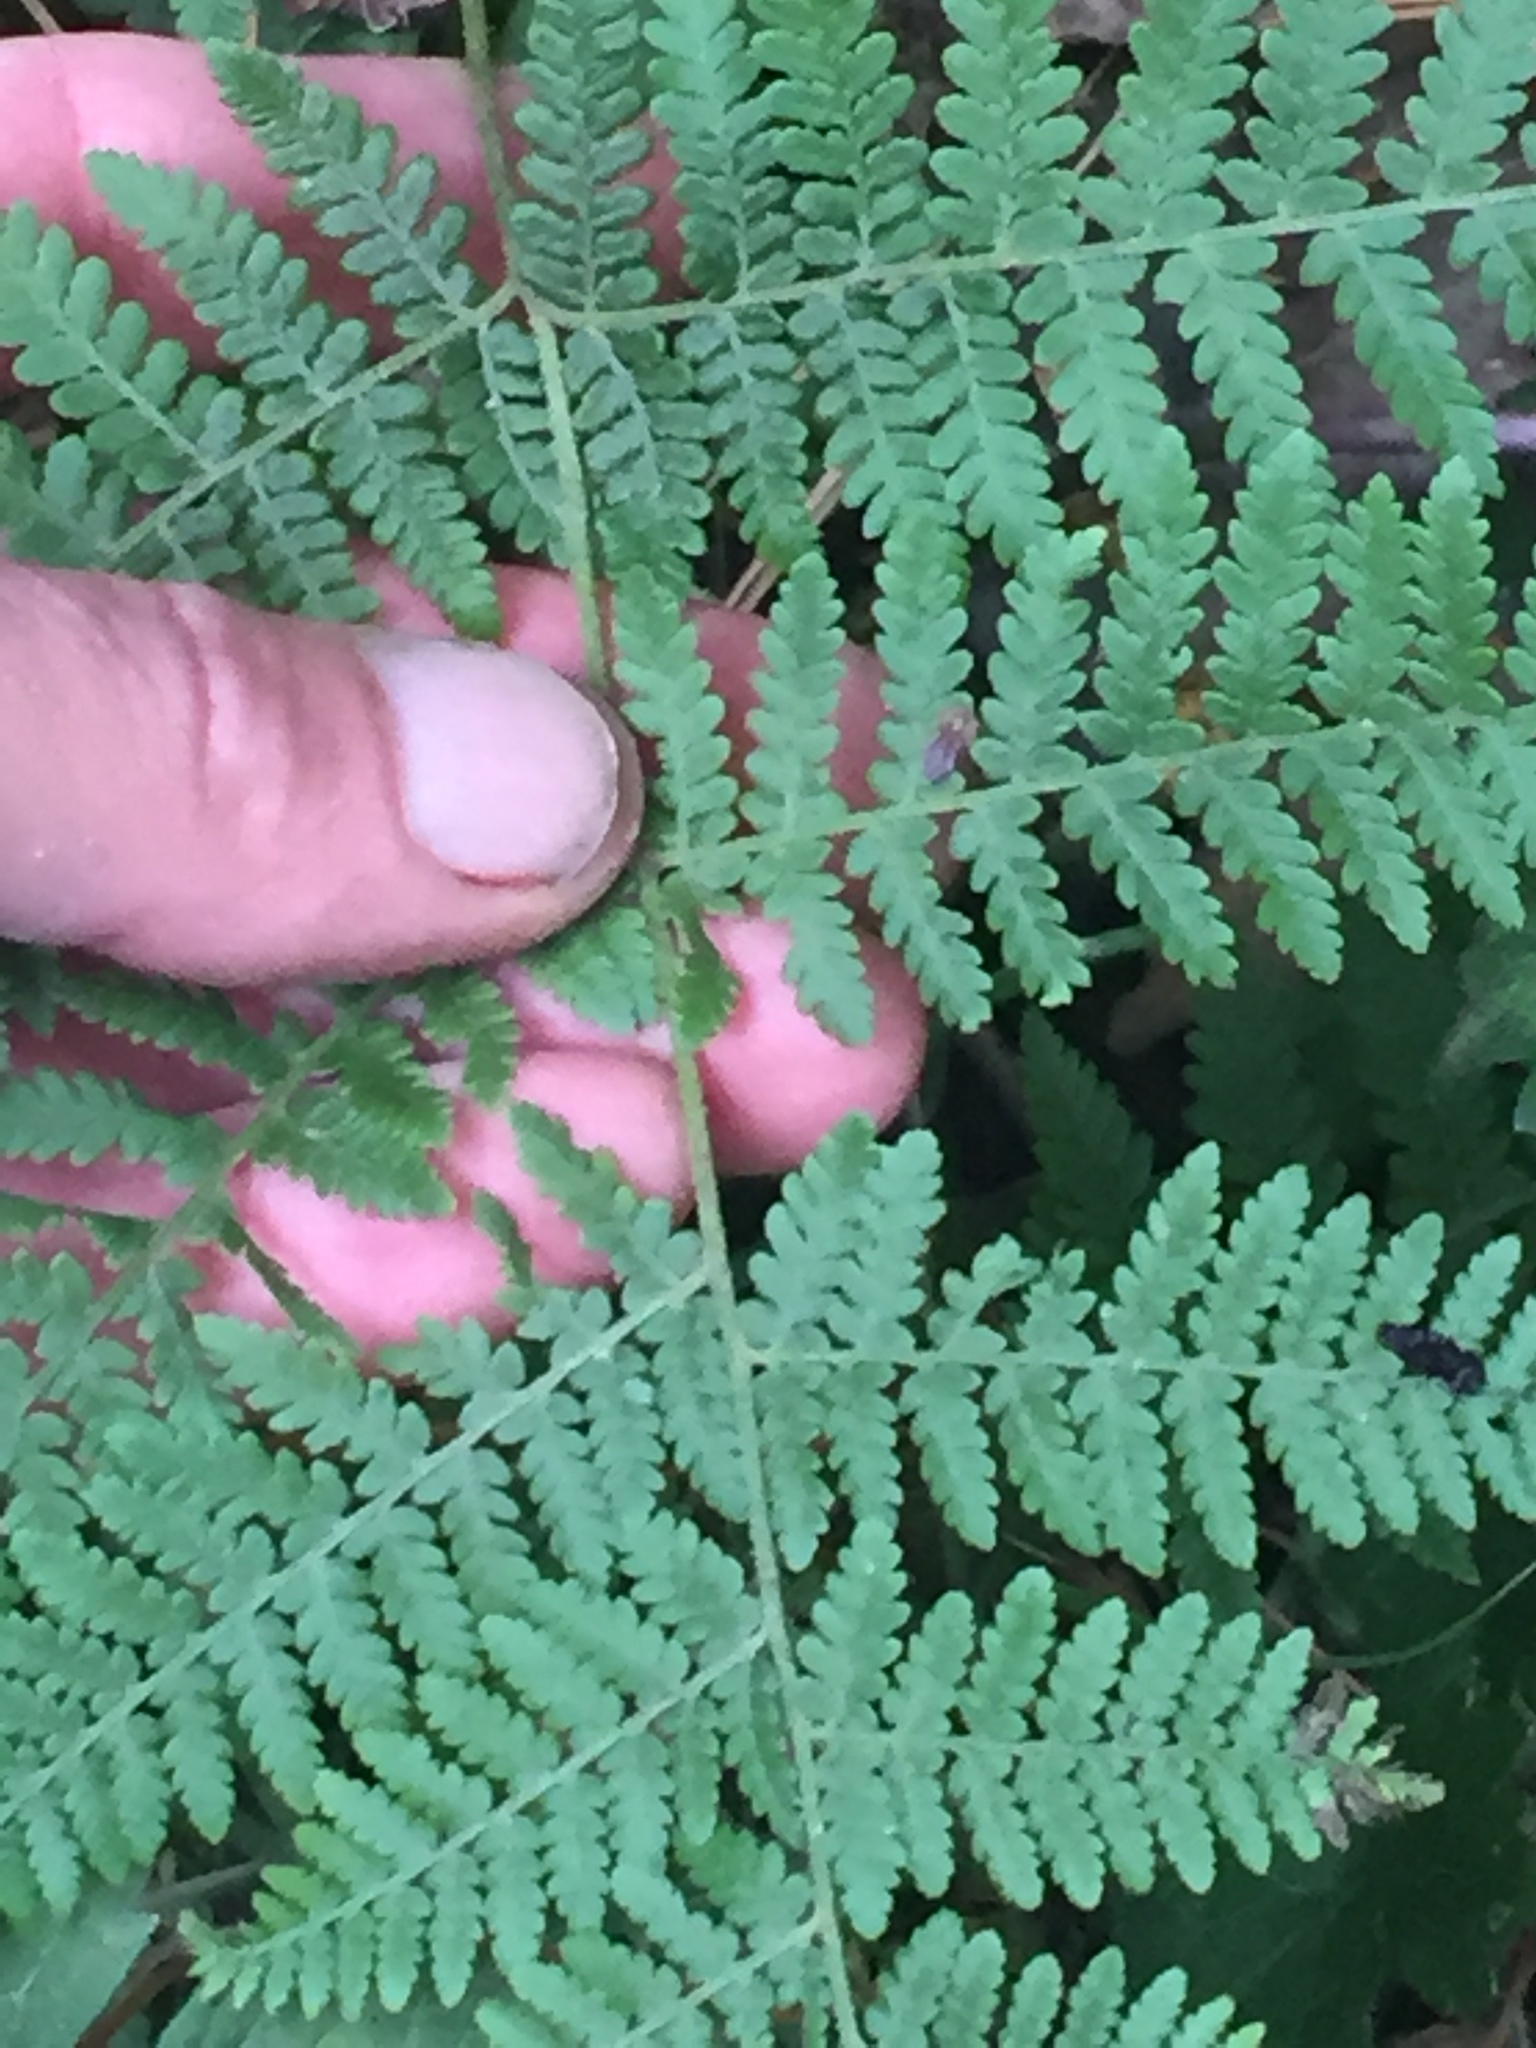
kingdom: Plantae
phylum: Tracheophyta
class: Polypodiopsida
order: Polypodiales
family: Dennstaedtiaceae
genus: Hypolepis
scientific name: Hypolepis ambigua
